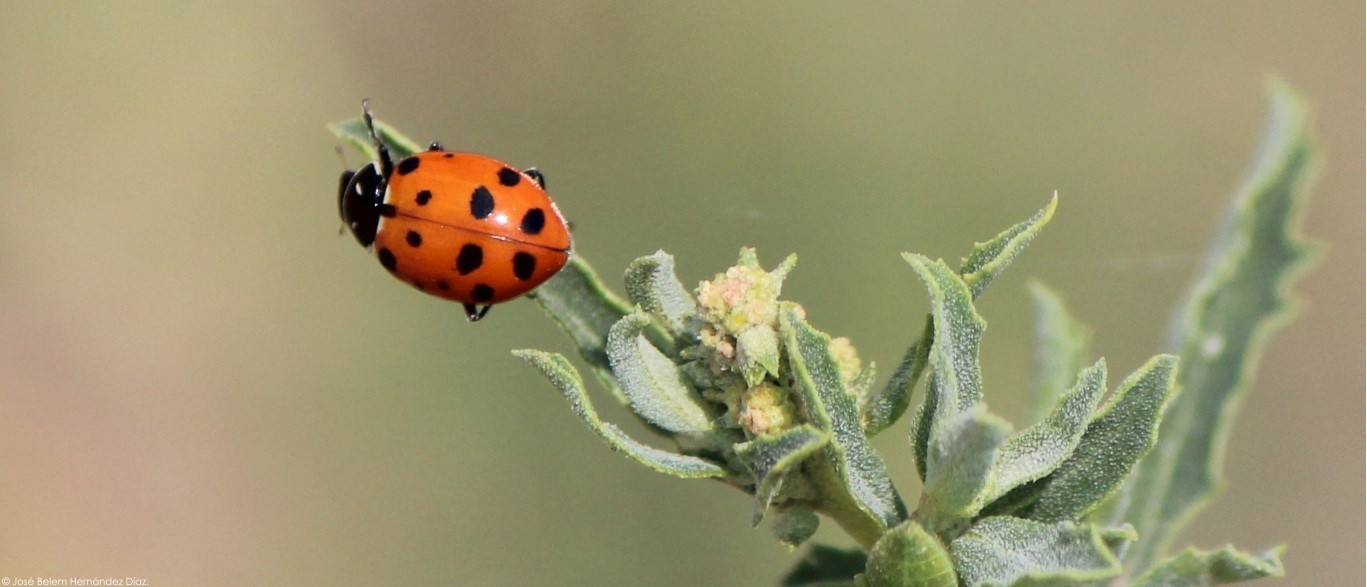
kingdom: Animalia
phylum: Arthropoda
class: Insecta
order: Coleoptera
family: Coccinellidae
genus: Hippodamia
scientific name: Hippodamia convergens
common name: Convergent lady beetle
